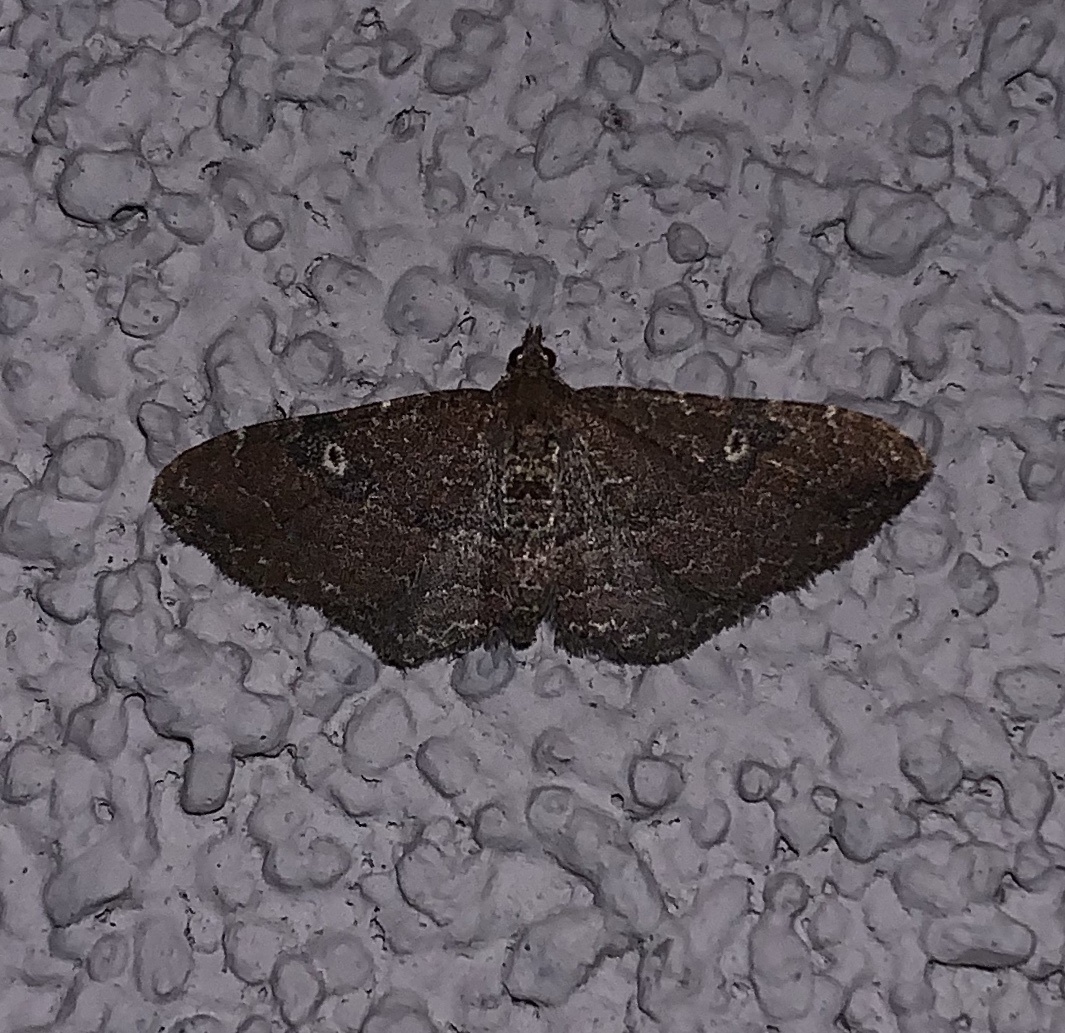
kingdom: Animalia
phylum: Arthropoda
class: Insecta
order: Lepidoptera
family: Geometridae
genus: Orthonama
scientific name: Orthonama obstipata
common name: The gem
